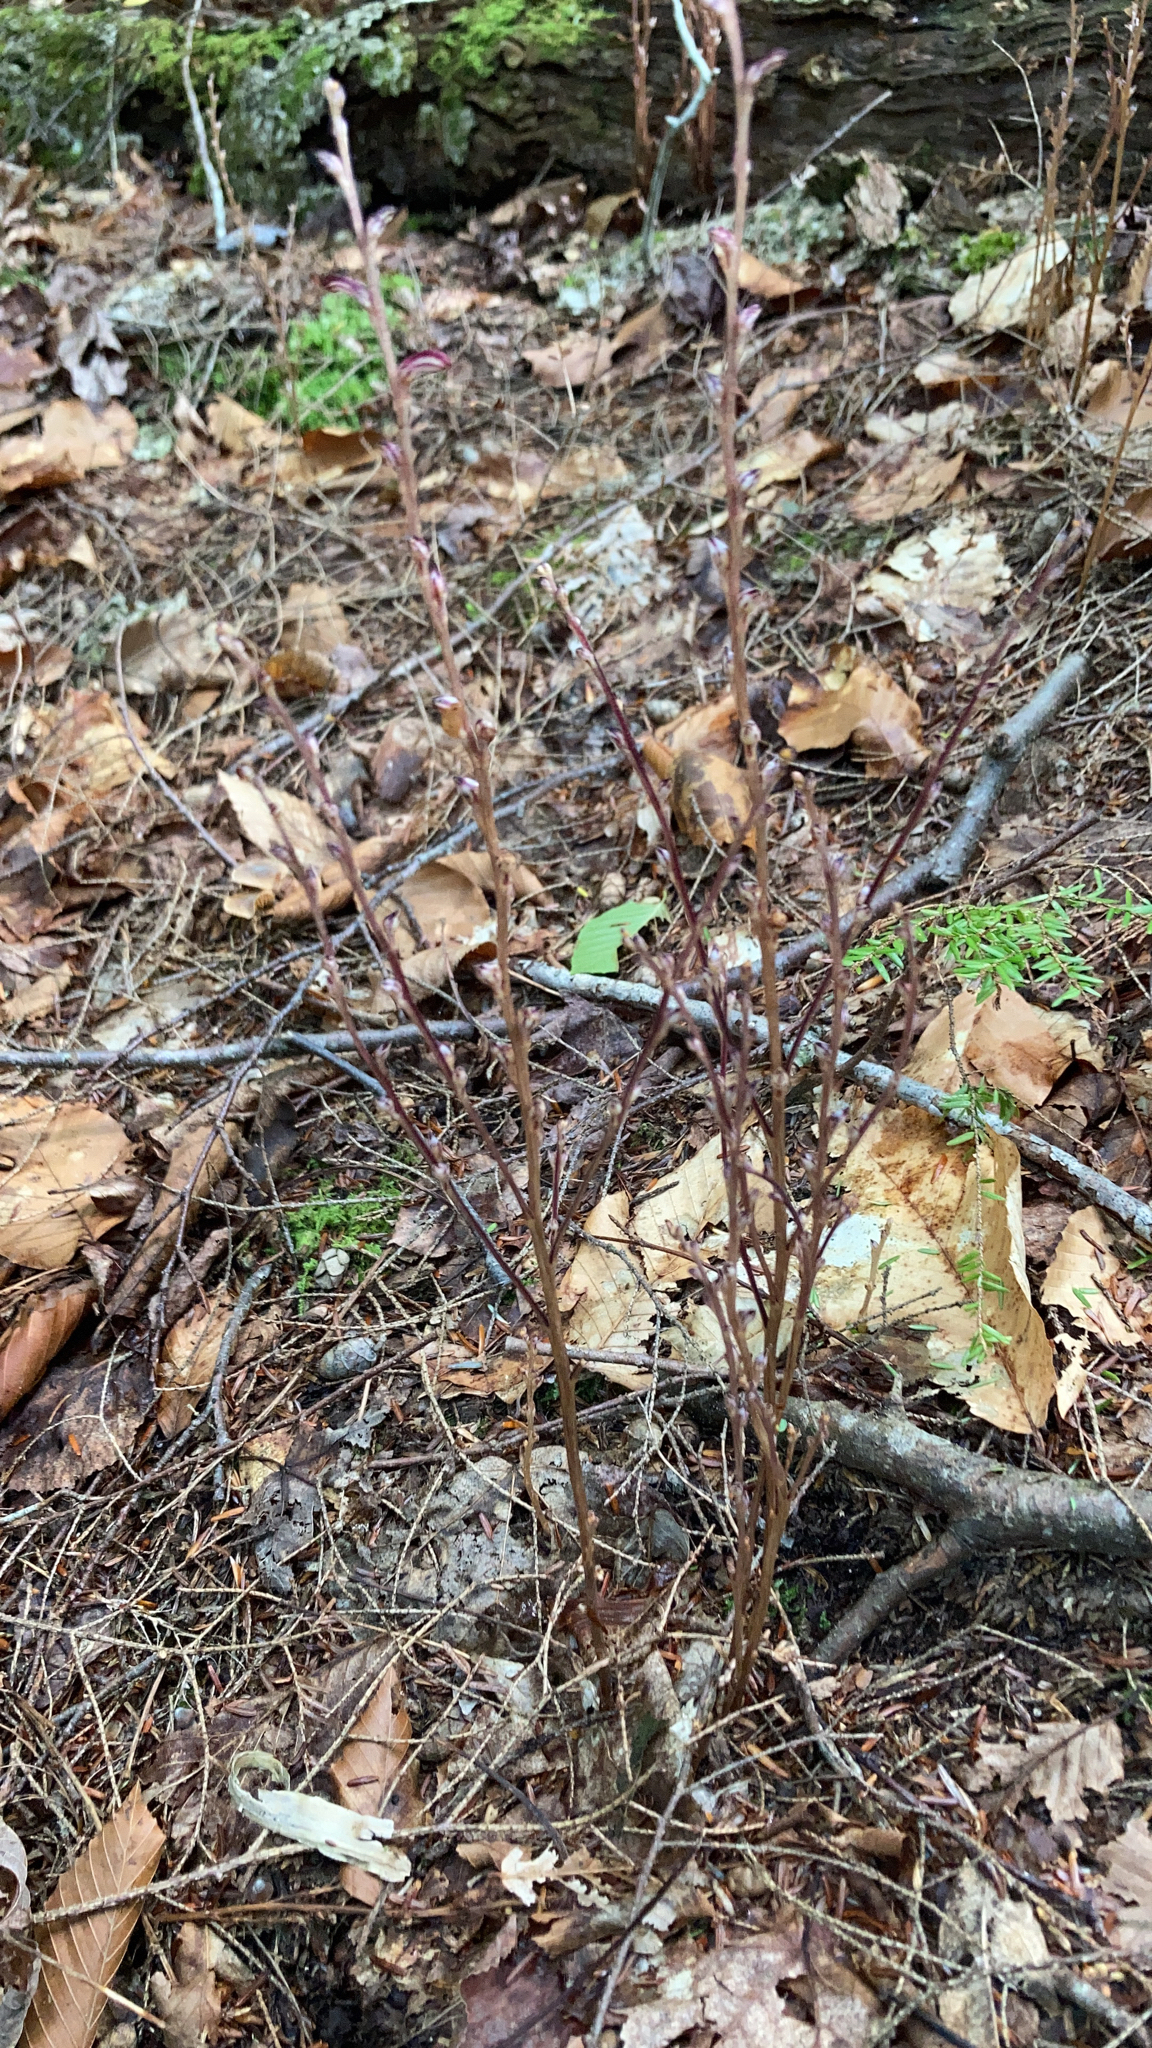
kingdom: Plantae
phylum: Tracheophyta
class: Magnoliopsida
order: Lamiales
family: Orobanchaceae
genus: Epifagus
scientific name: Epifagus virginiana
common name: Beechdrops
